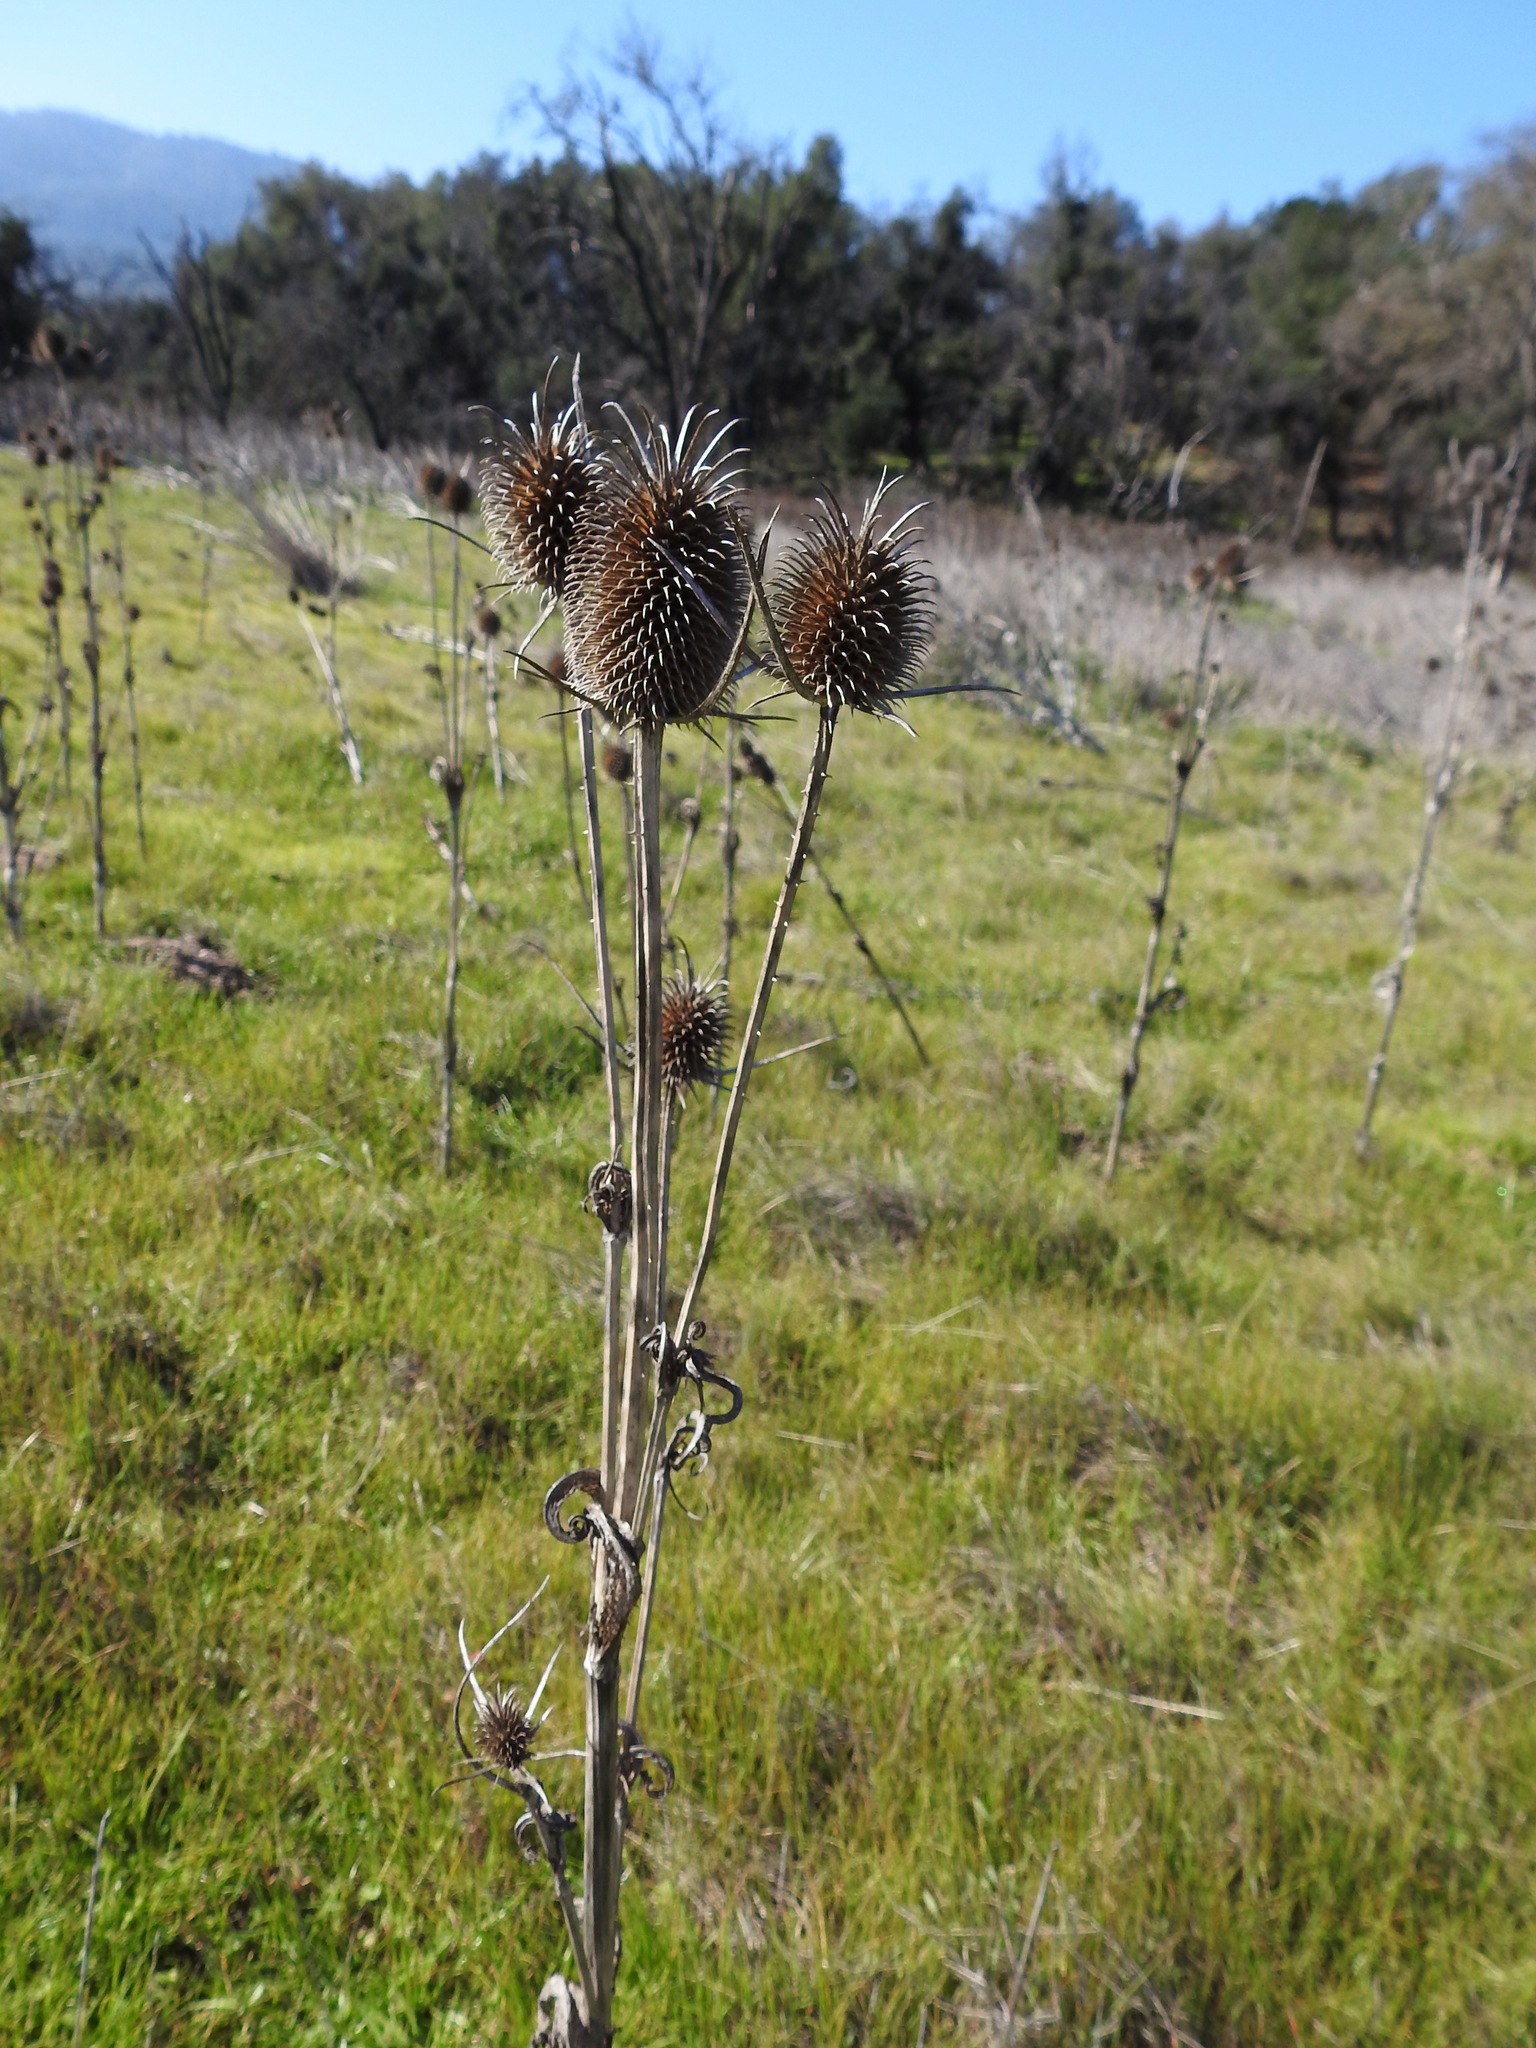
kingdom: Plantae
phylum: Tracheophyta
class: Magnoliopsida
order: Dipsacales
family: Caprifoliaceae
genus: Dipsacus
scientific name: Dipsacus sativus
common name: Fuller's teasel
